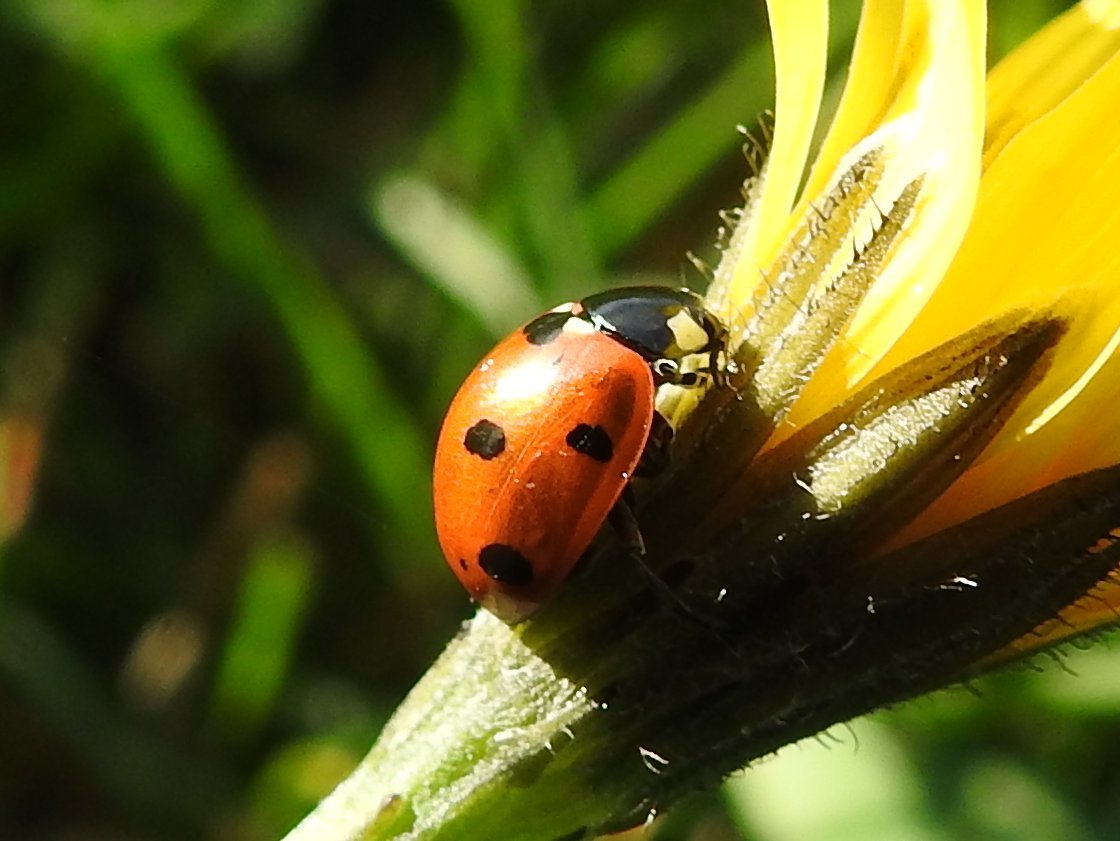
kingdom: Animalia
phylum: Arthropoda
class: Insecta
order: Coleoptera
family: Coccinellidae
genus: Coccinella
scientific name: Coccinella septempunctata
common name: Sevenspotted lady beetle
